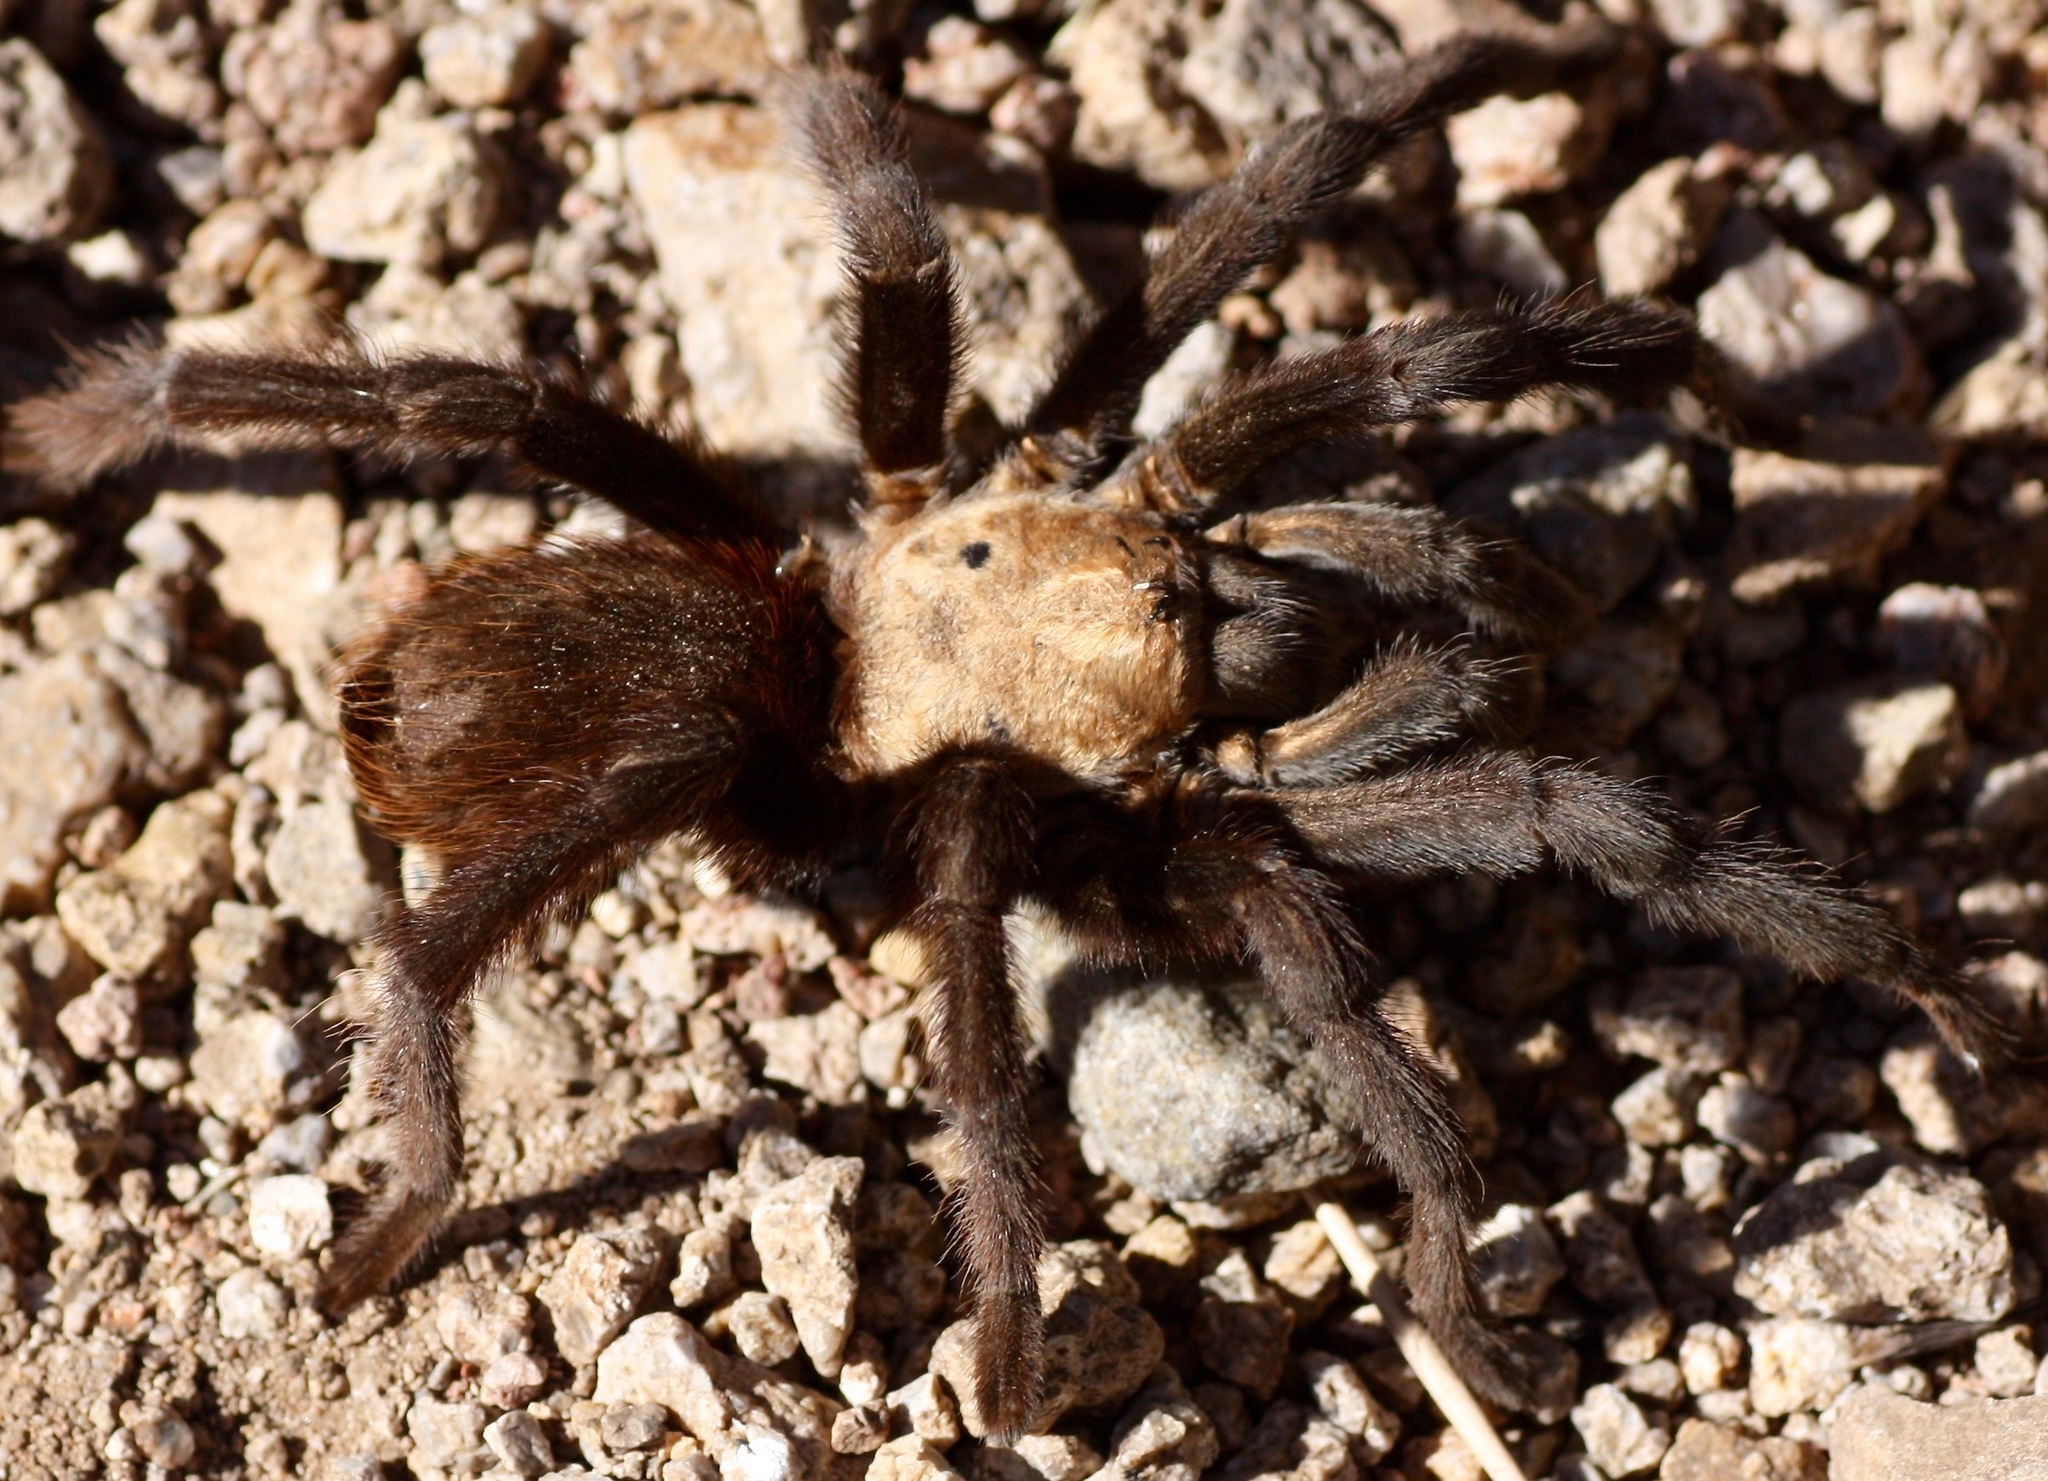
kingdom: Animalia
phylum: Arthropoda
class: Arachnida
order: Araneae
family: Theraphosidae
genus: Aphonopelma
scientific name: Aphonopelma hentzi
